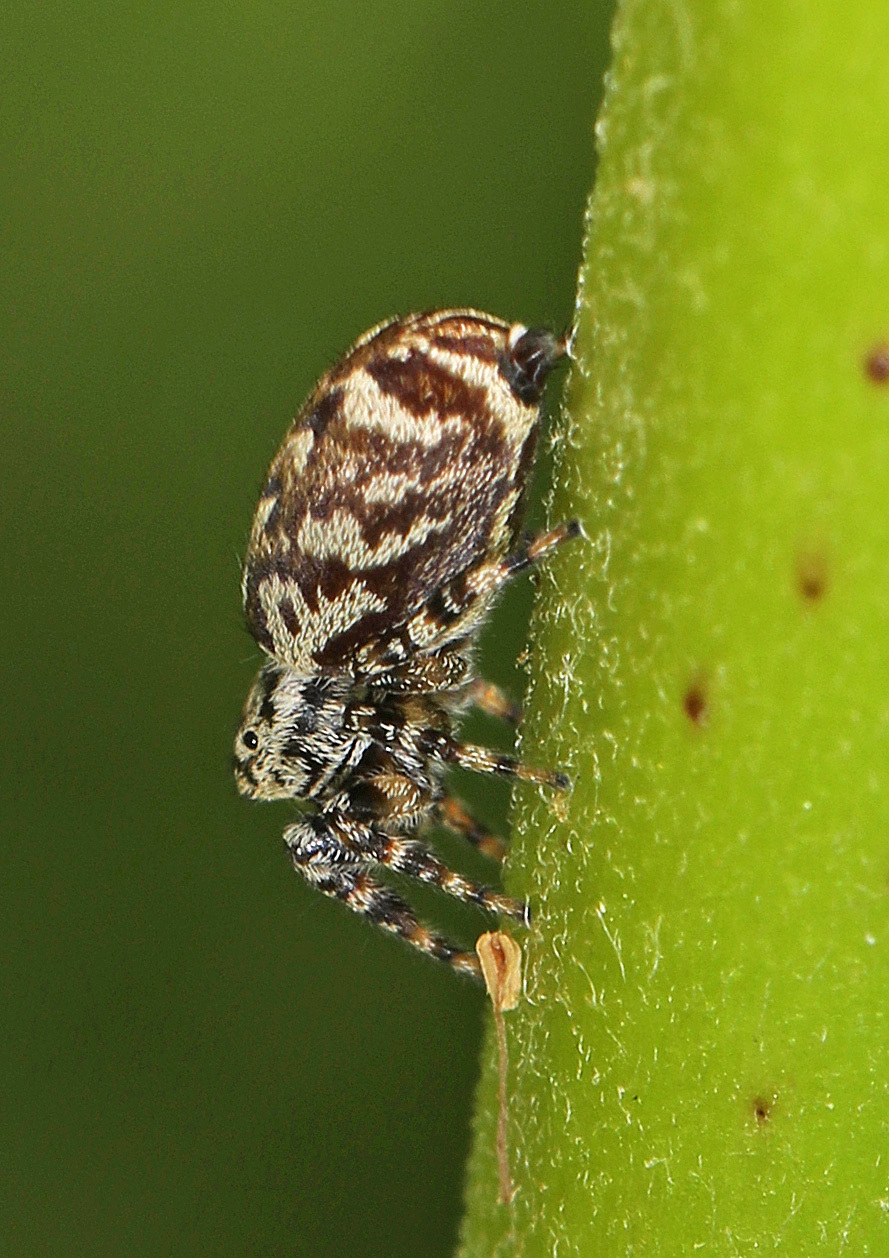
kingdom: Animalia
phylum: Arthropoda
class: Arachnida
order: Araneae
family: Salticidae
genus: Pelegrina
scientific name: Pelegrina galathea
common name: Jumping spiders
